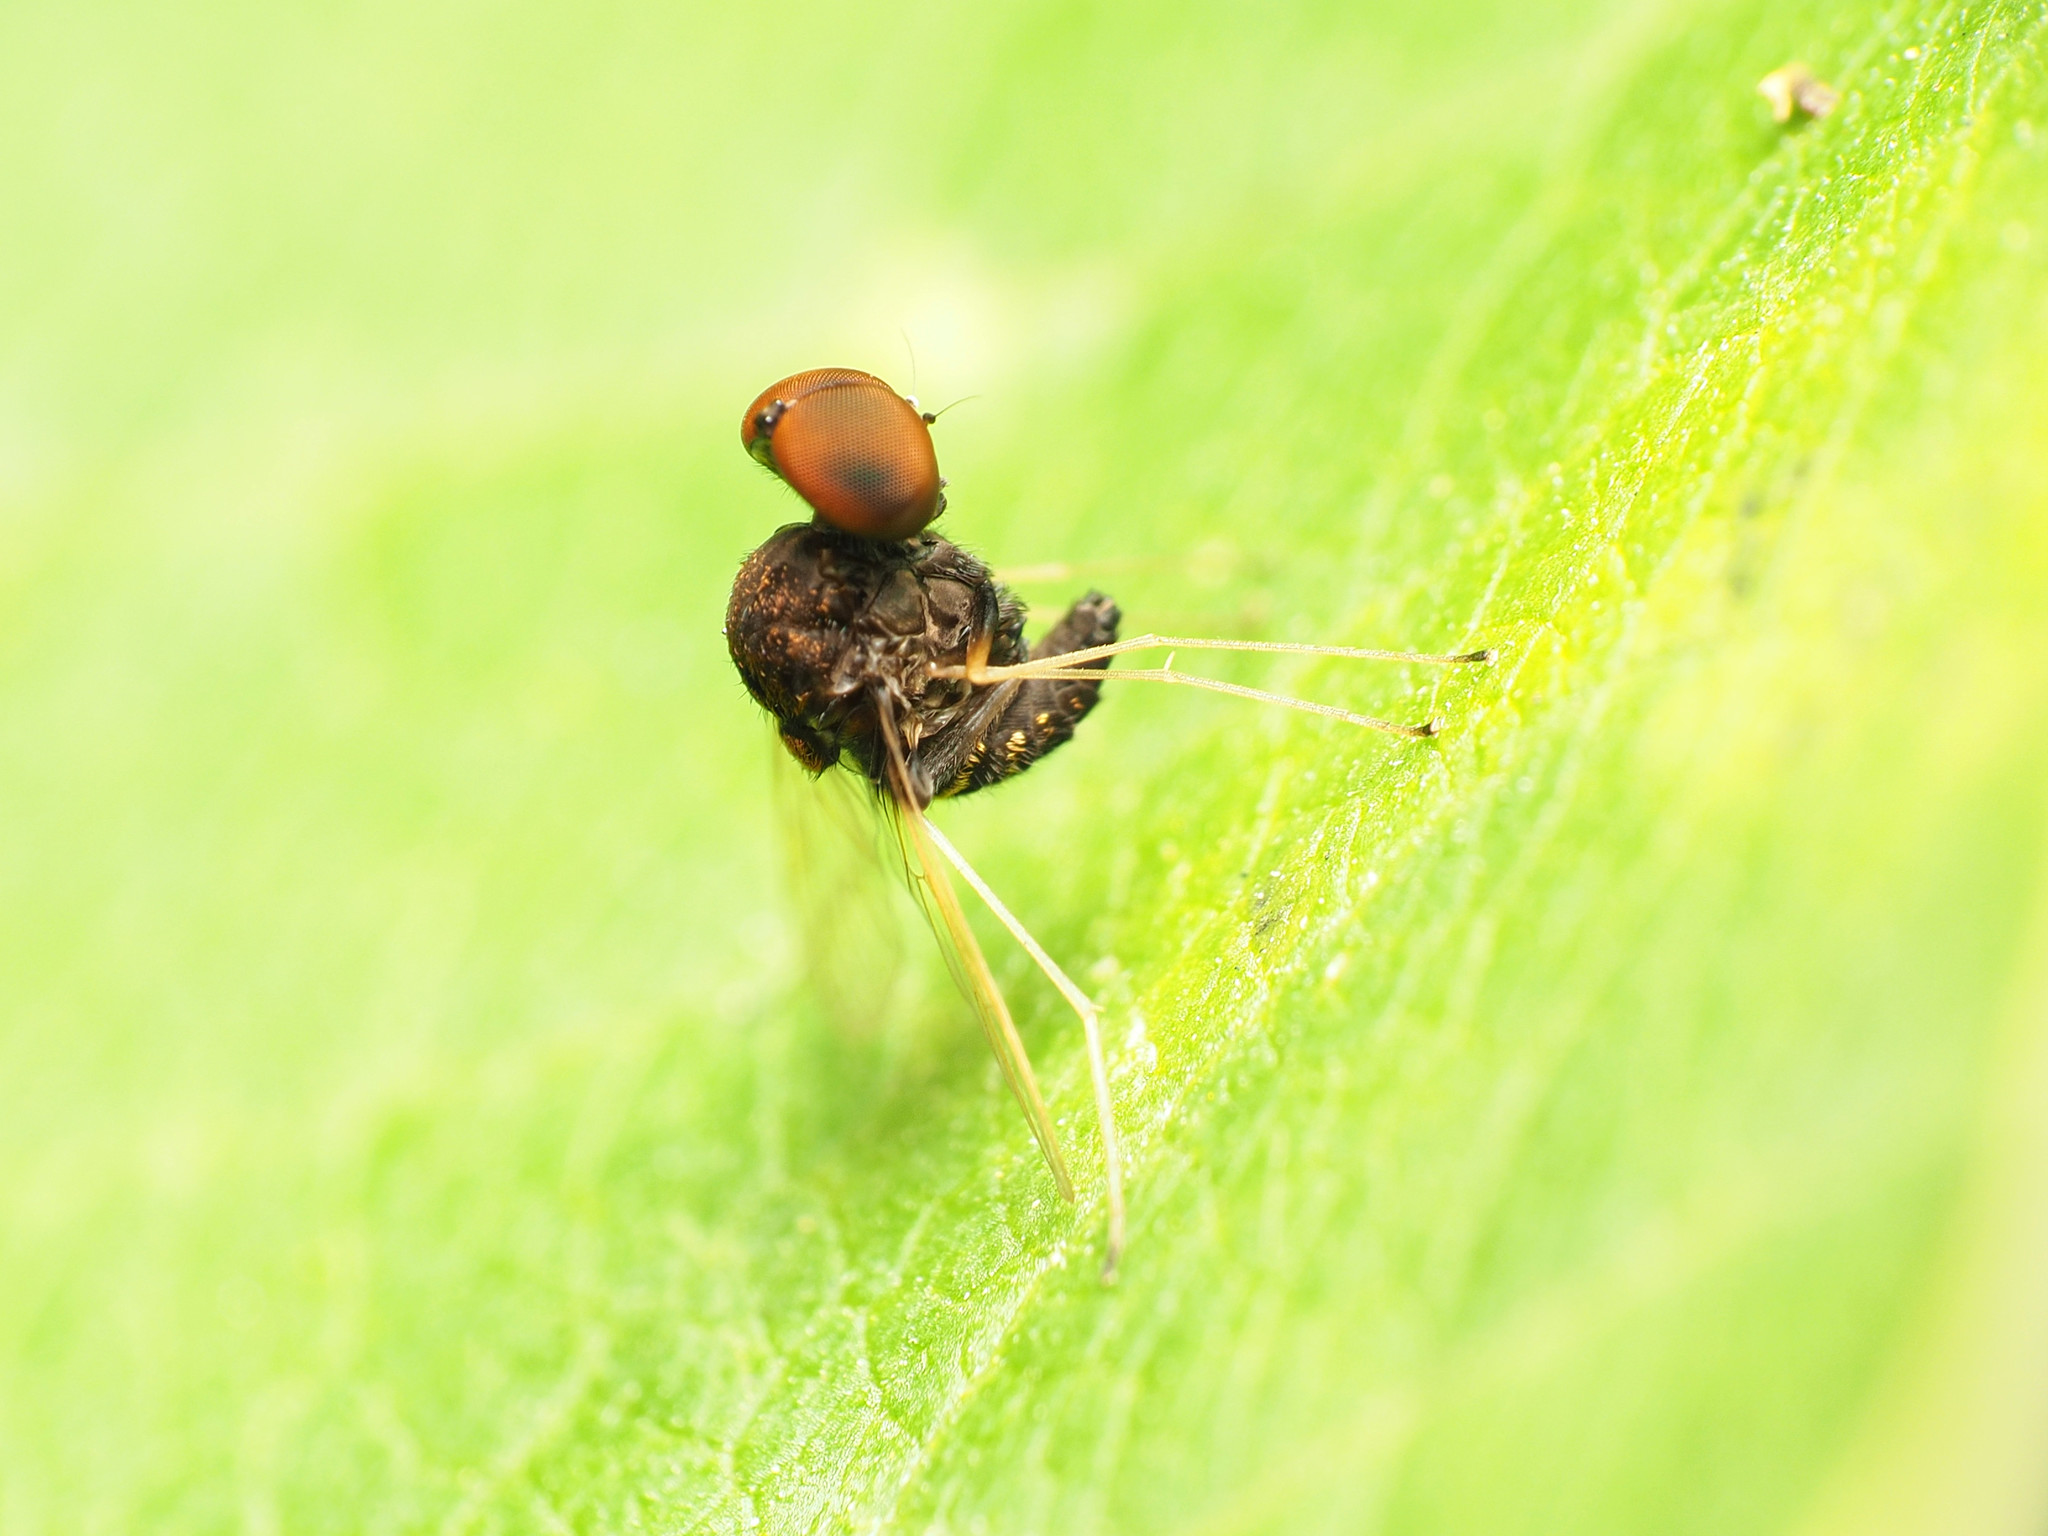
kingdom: Animalia
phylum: Arthropoda
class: Insecta
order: Diptera
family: Rhagionidae
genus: Chrysopilus
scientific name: Chrysopilus basilaris
